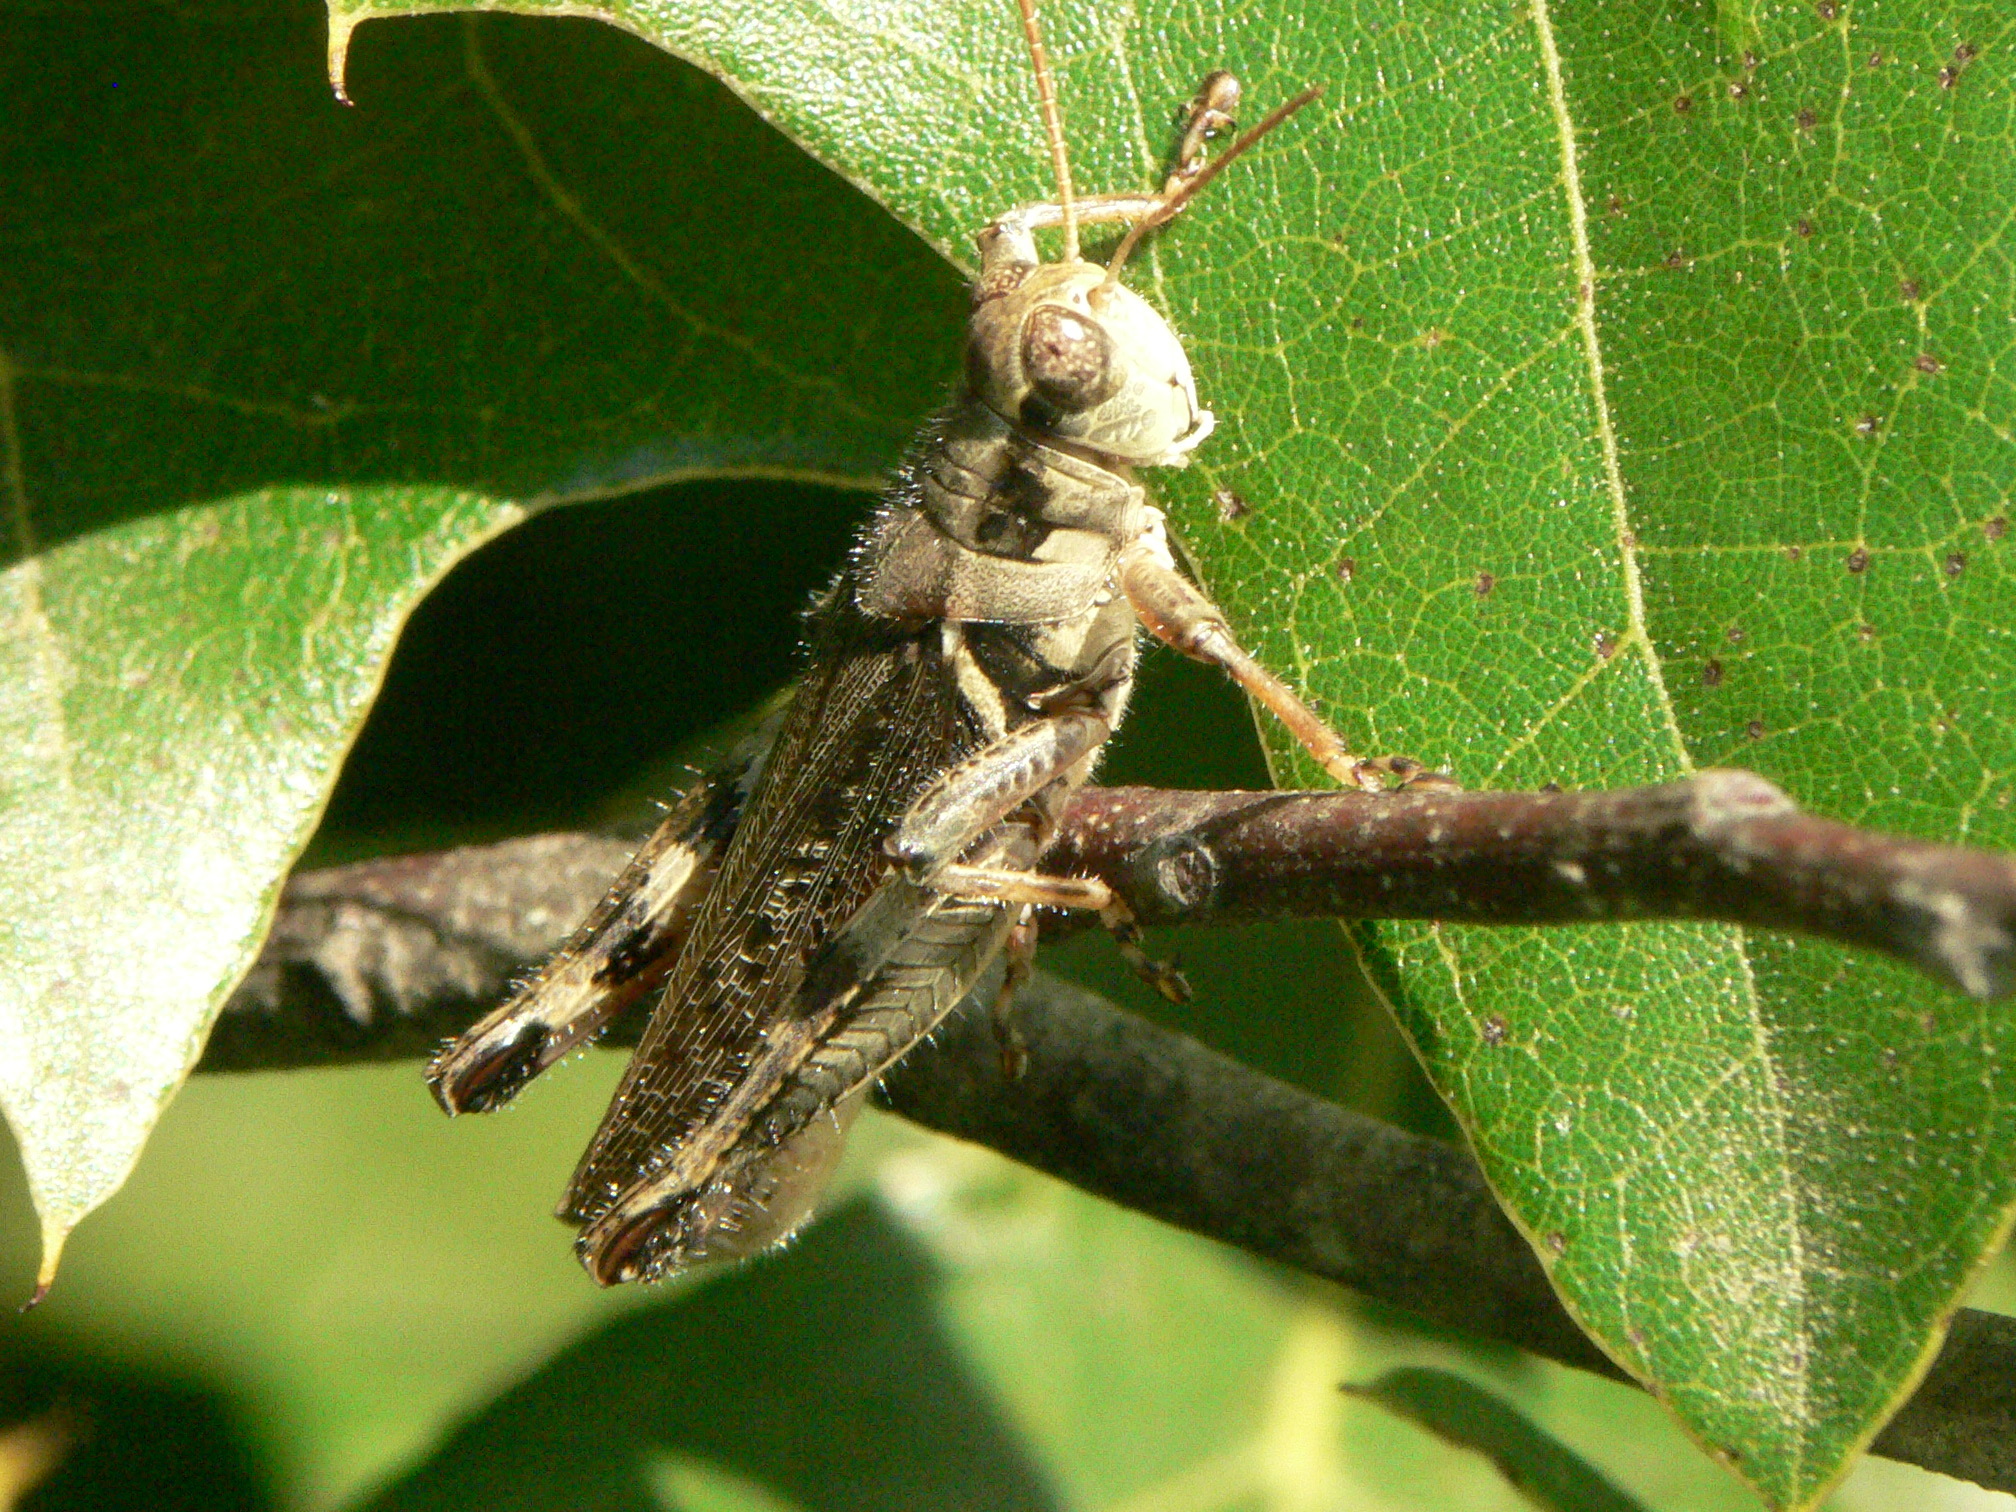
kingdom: Animalia
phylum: Arthropoda
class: Insecta
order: Orthoptera
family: Acrididae
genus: Melanoplus
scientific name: Melanoplus keeleri
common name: Keeler grasshopper
